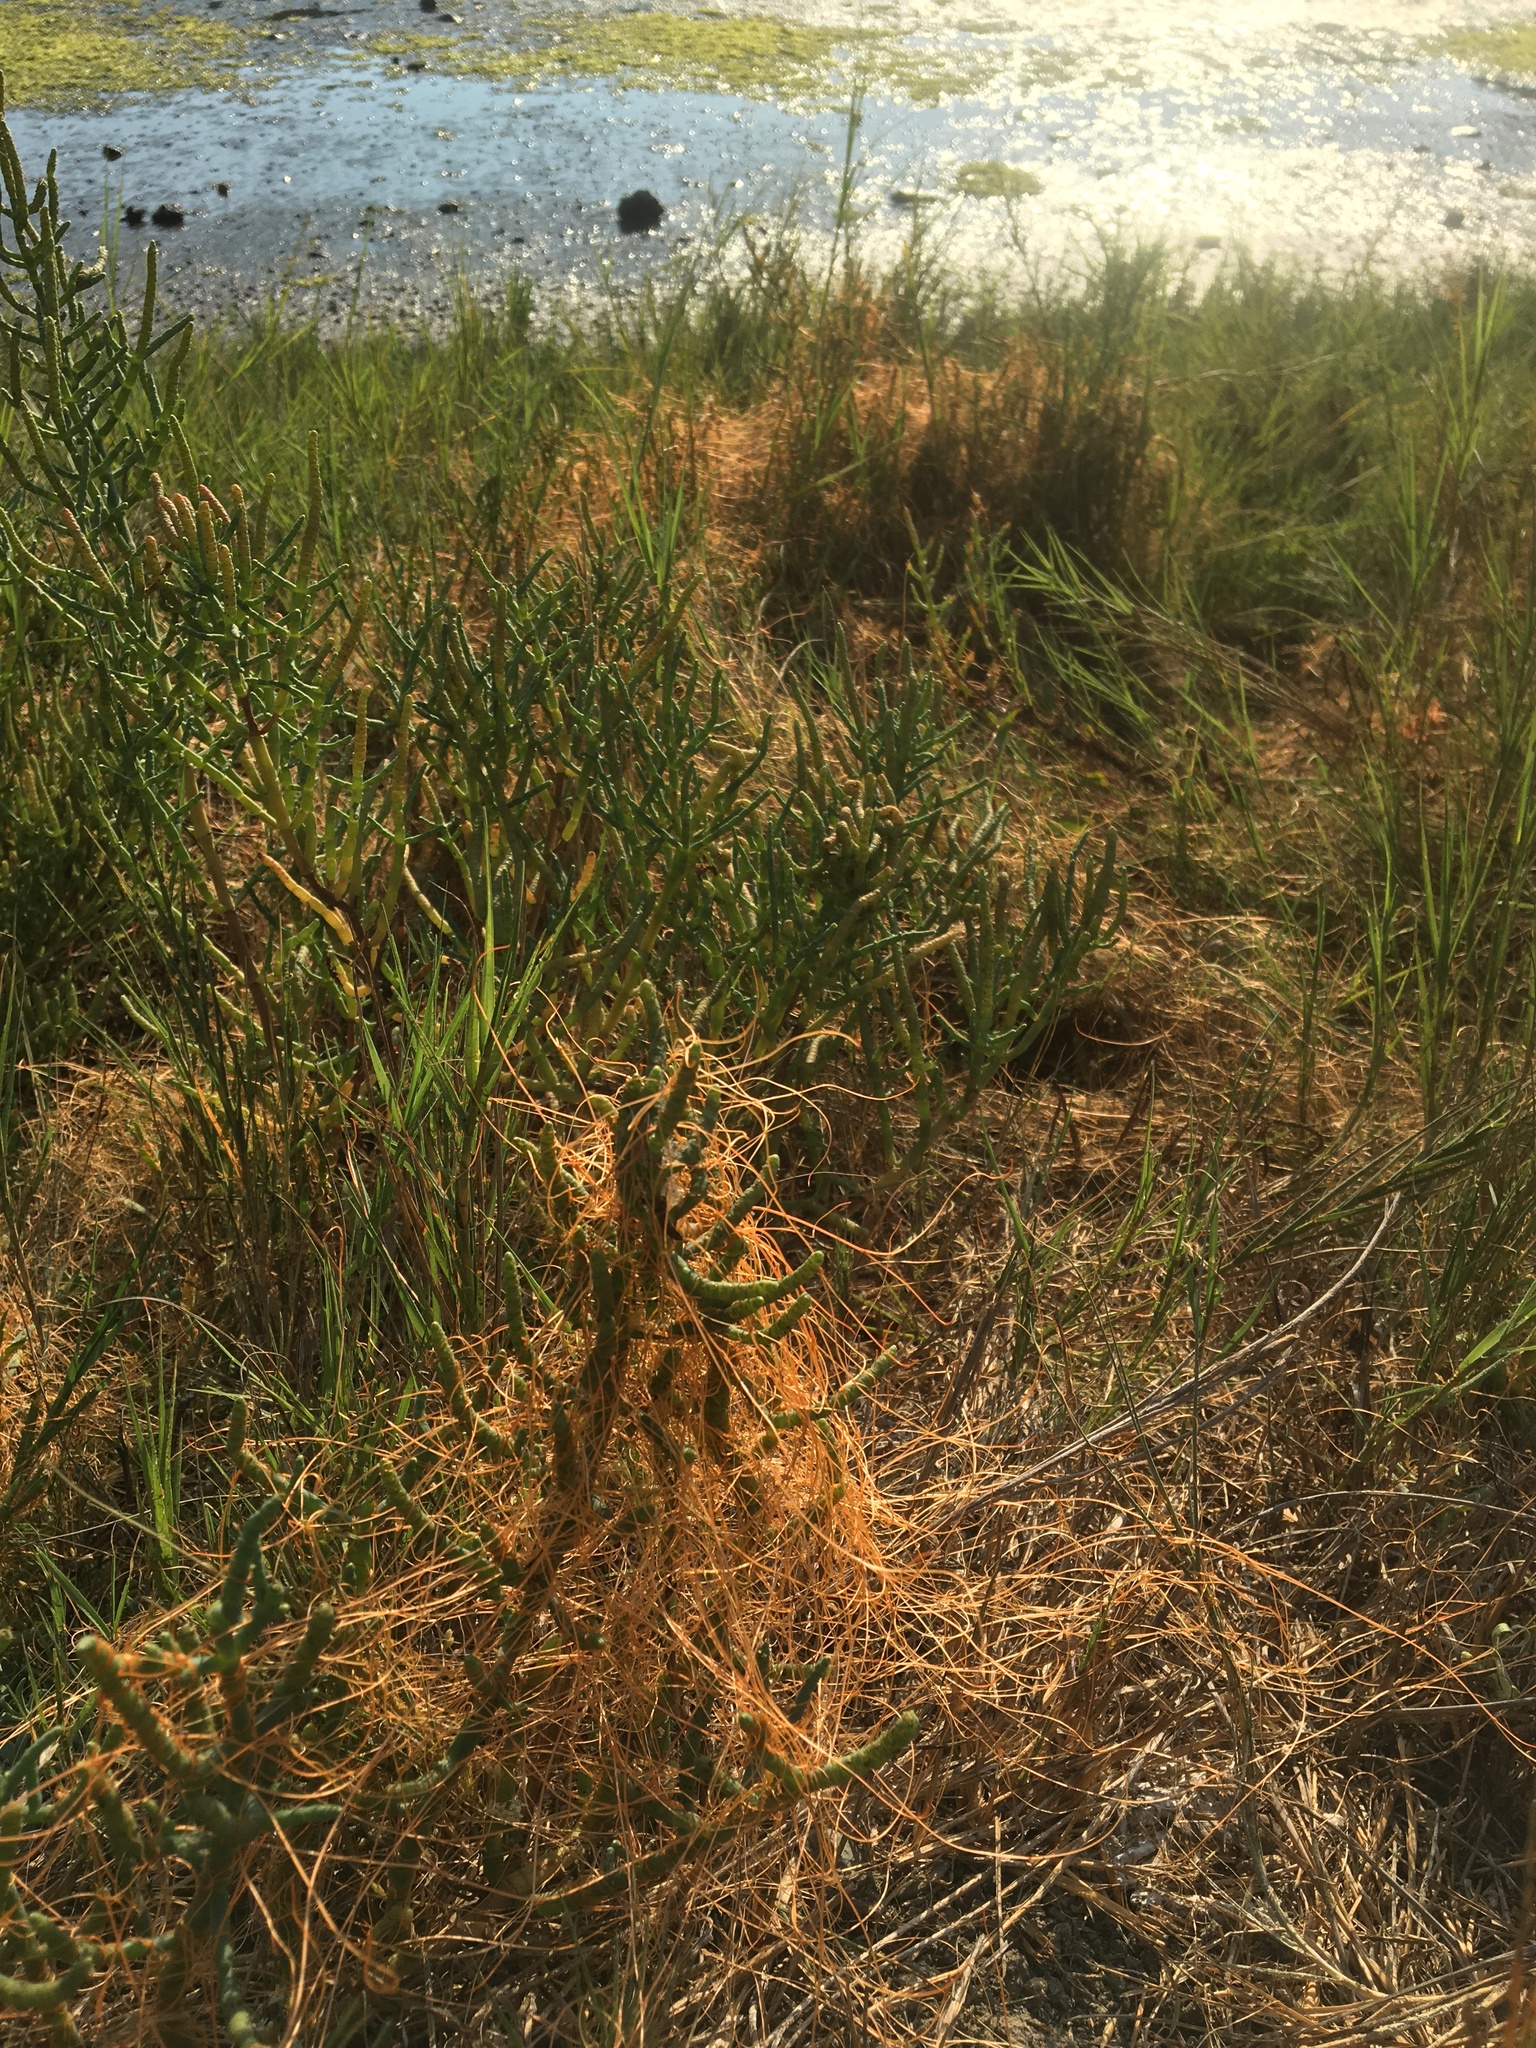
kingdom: Plantae
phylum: Tracheophyta
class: Magnoliopsida
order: Solanales
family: Convolvulaceae
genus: Cuscuta
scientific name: Cuscuta pacifica
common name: Large saltmarsh dodder
